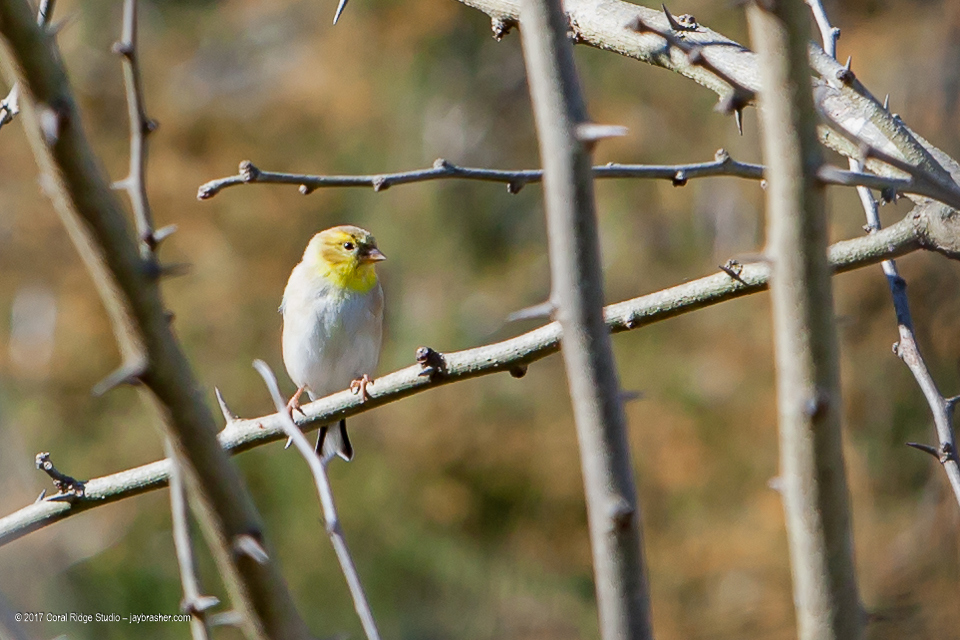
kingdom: Animalia
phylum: Chordata
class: Aves
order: Passeriformes
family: Fringillidae
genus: Spinus
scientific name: Spinus tristis
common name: American goldfinch
